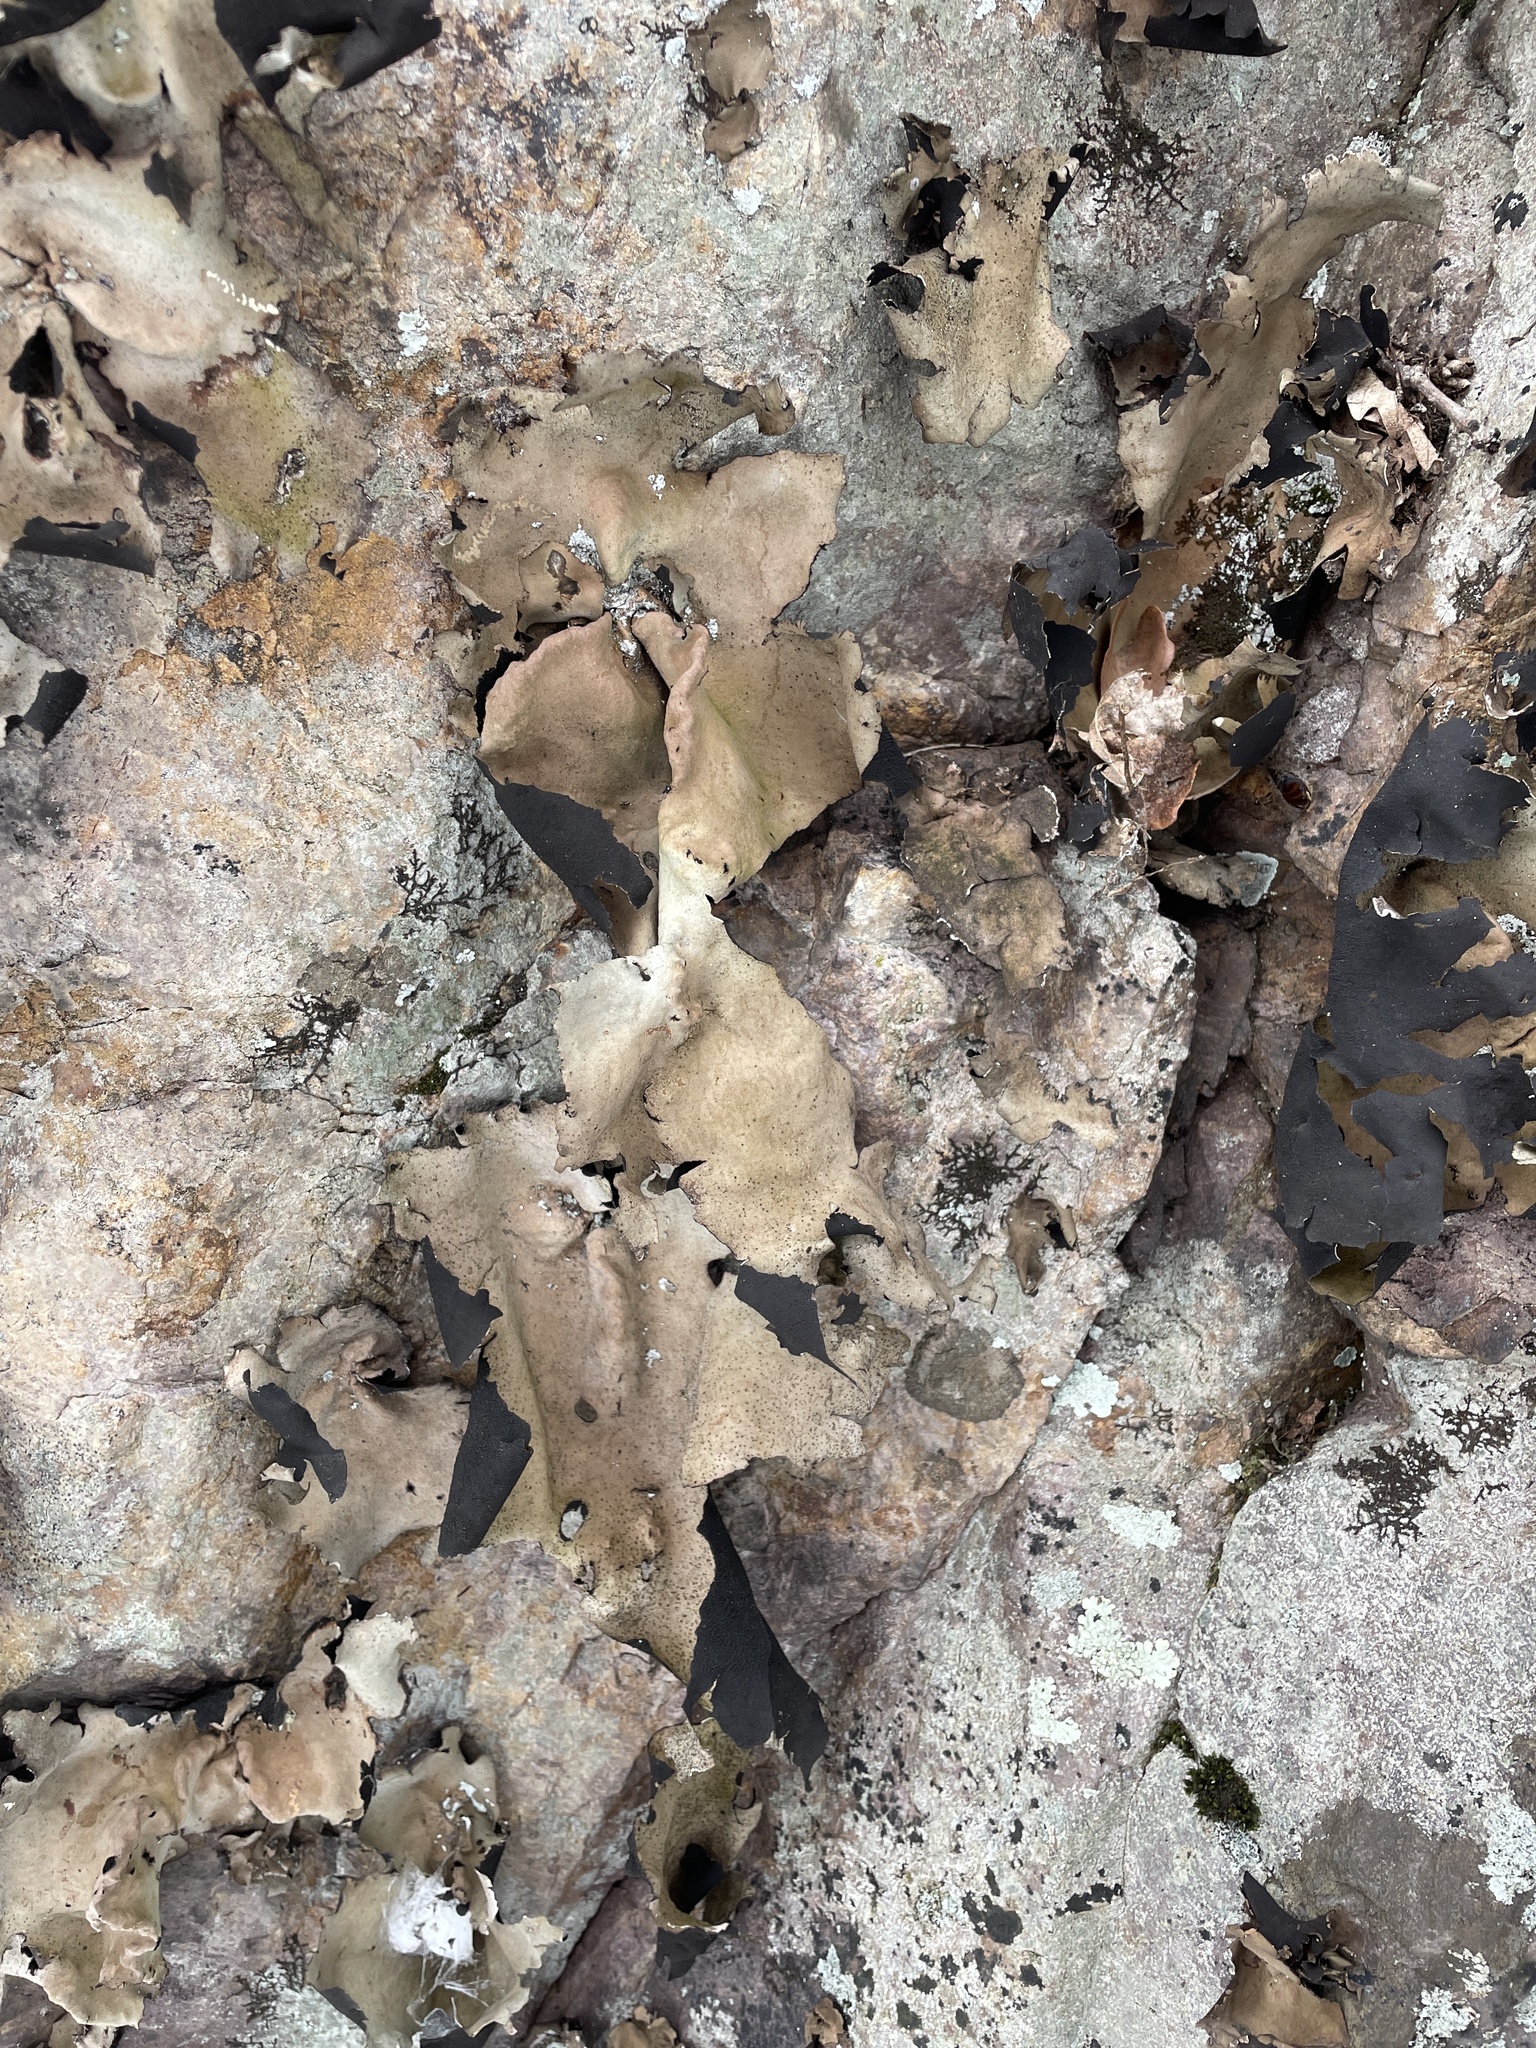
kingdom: Fungi
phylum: Ascomycota
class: Lecanoromycetes
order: Umbilicariales
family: Umbilicariaceae
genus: Umbilicaria
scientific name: Umbilicaria mammulata
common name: Smooth rock tripe
